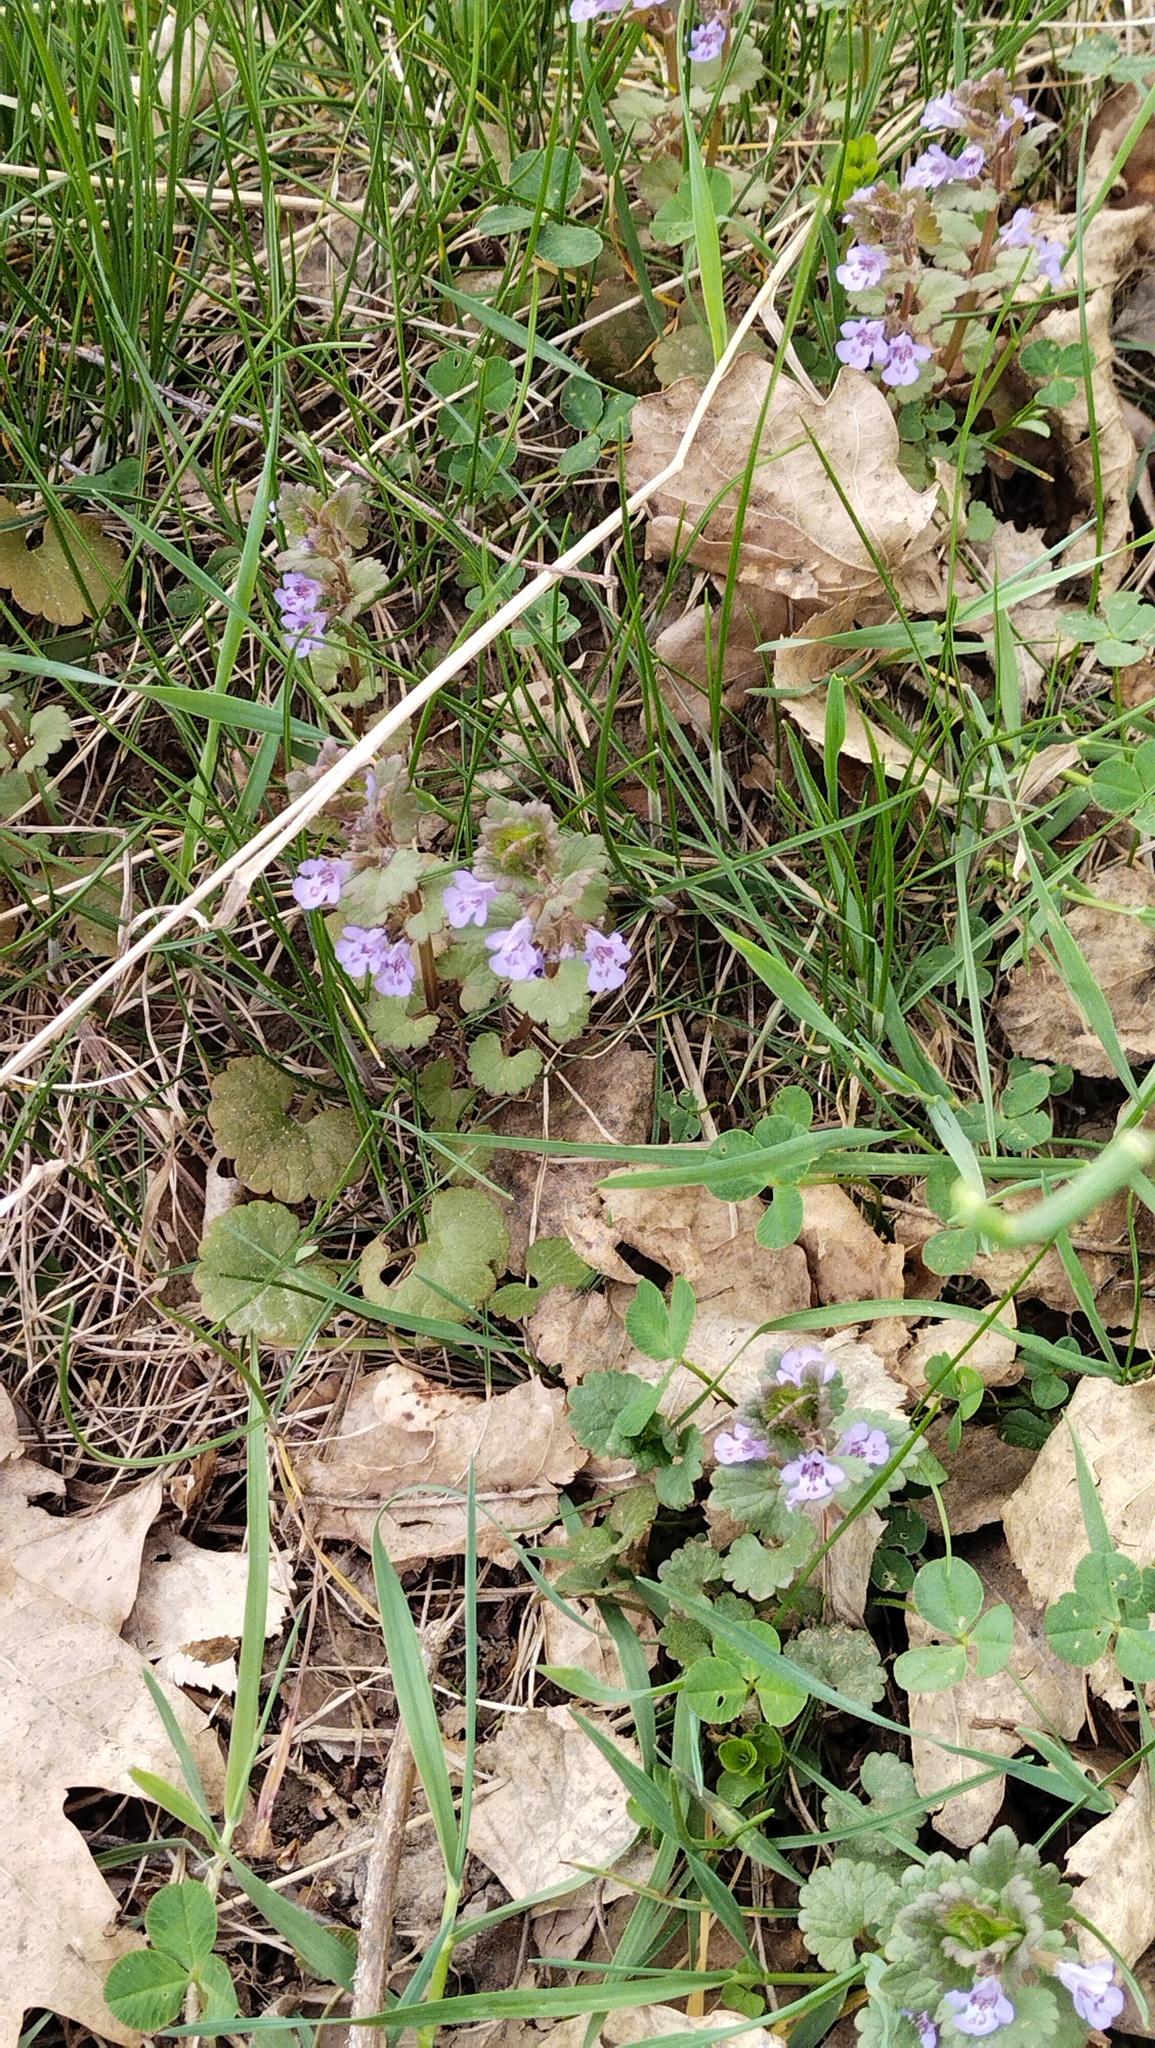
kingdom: Plantae
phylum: Tracheophyta
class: Magnoliopsida
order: Lamiales
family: Lamiaceae
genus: Glechoma
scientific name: Glechoma hederacea
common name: Ground ivy
